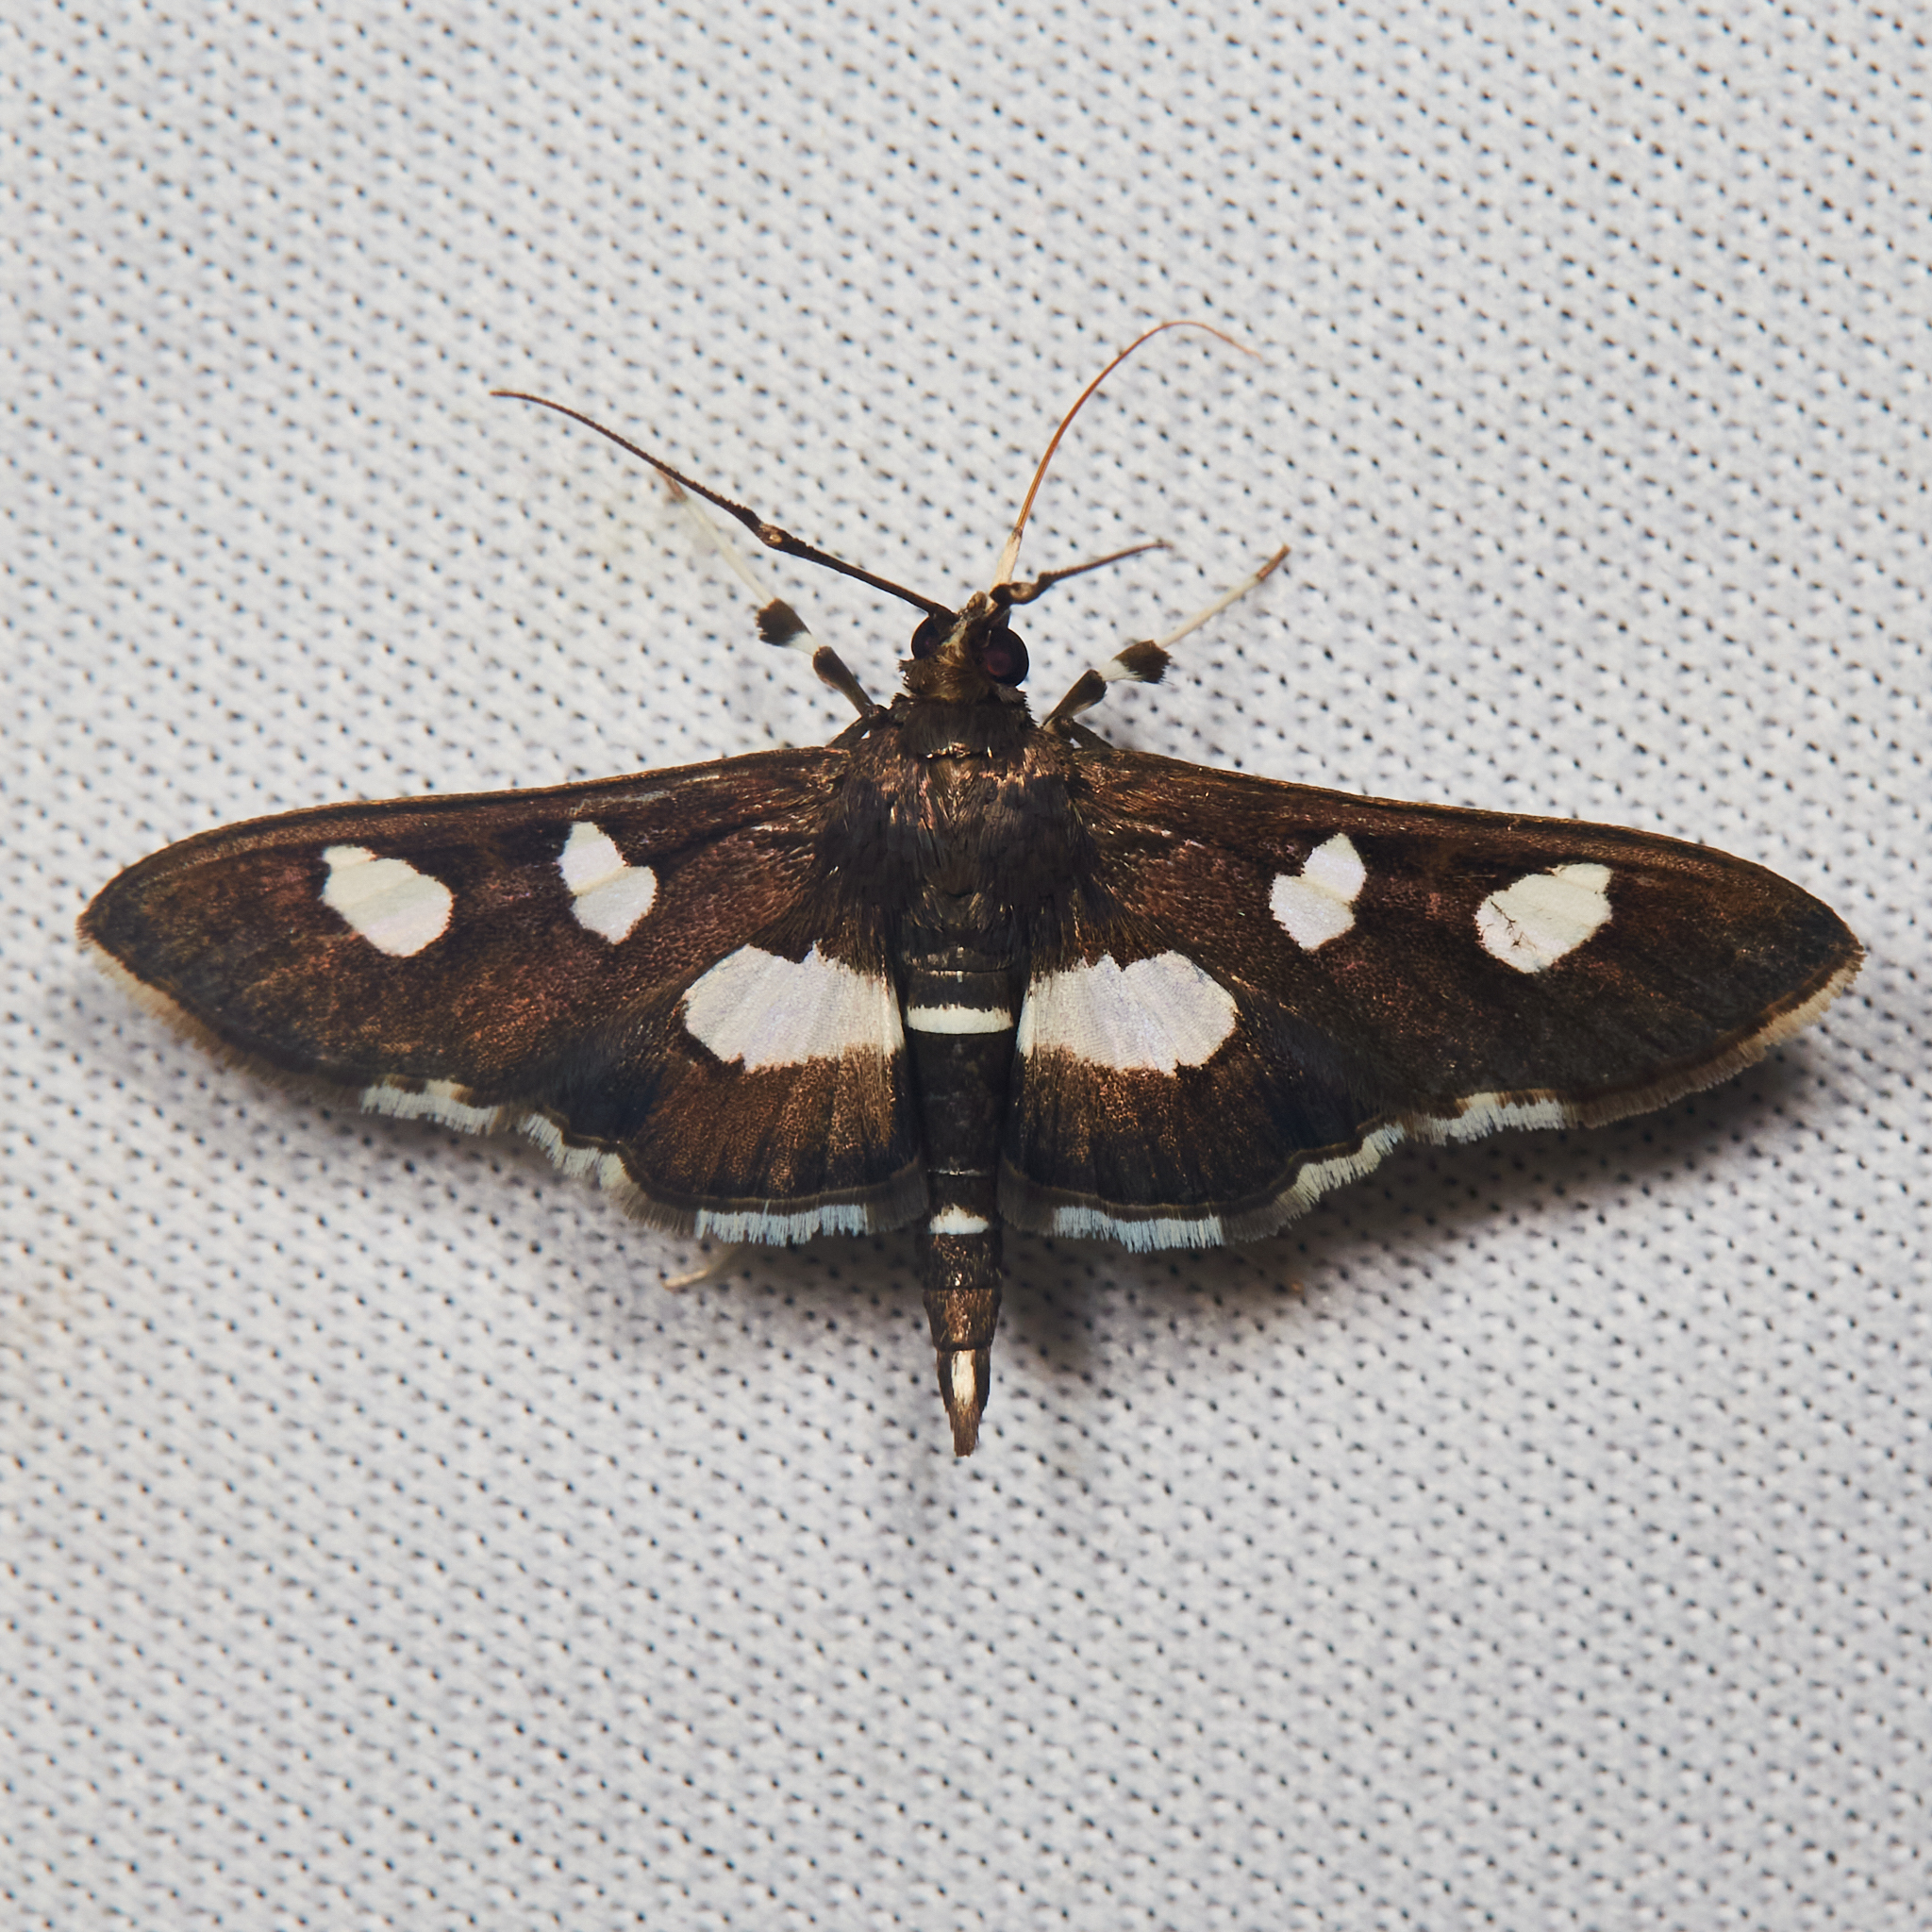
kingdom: Animalia
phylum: Arthropoda
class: Insecta
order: Lepidoptera
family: Crambidae
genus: Desmia
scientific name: Desmia
